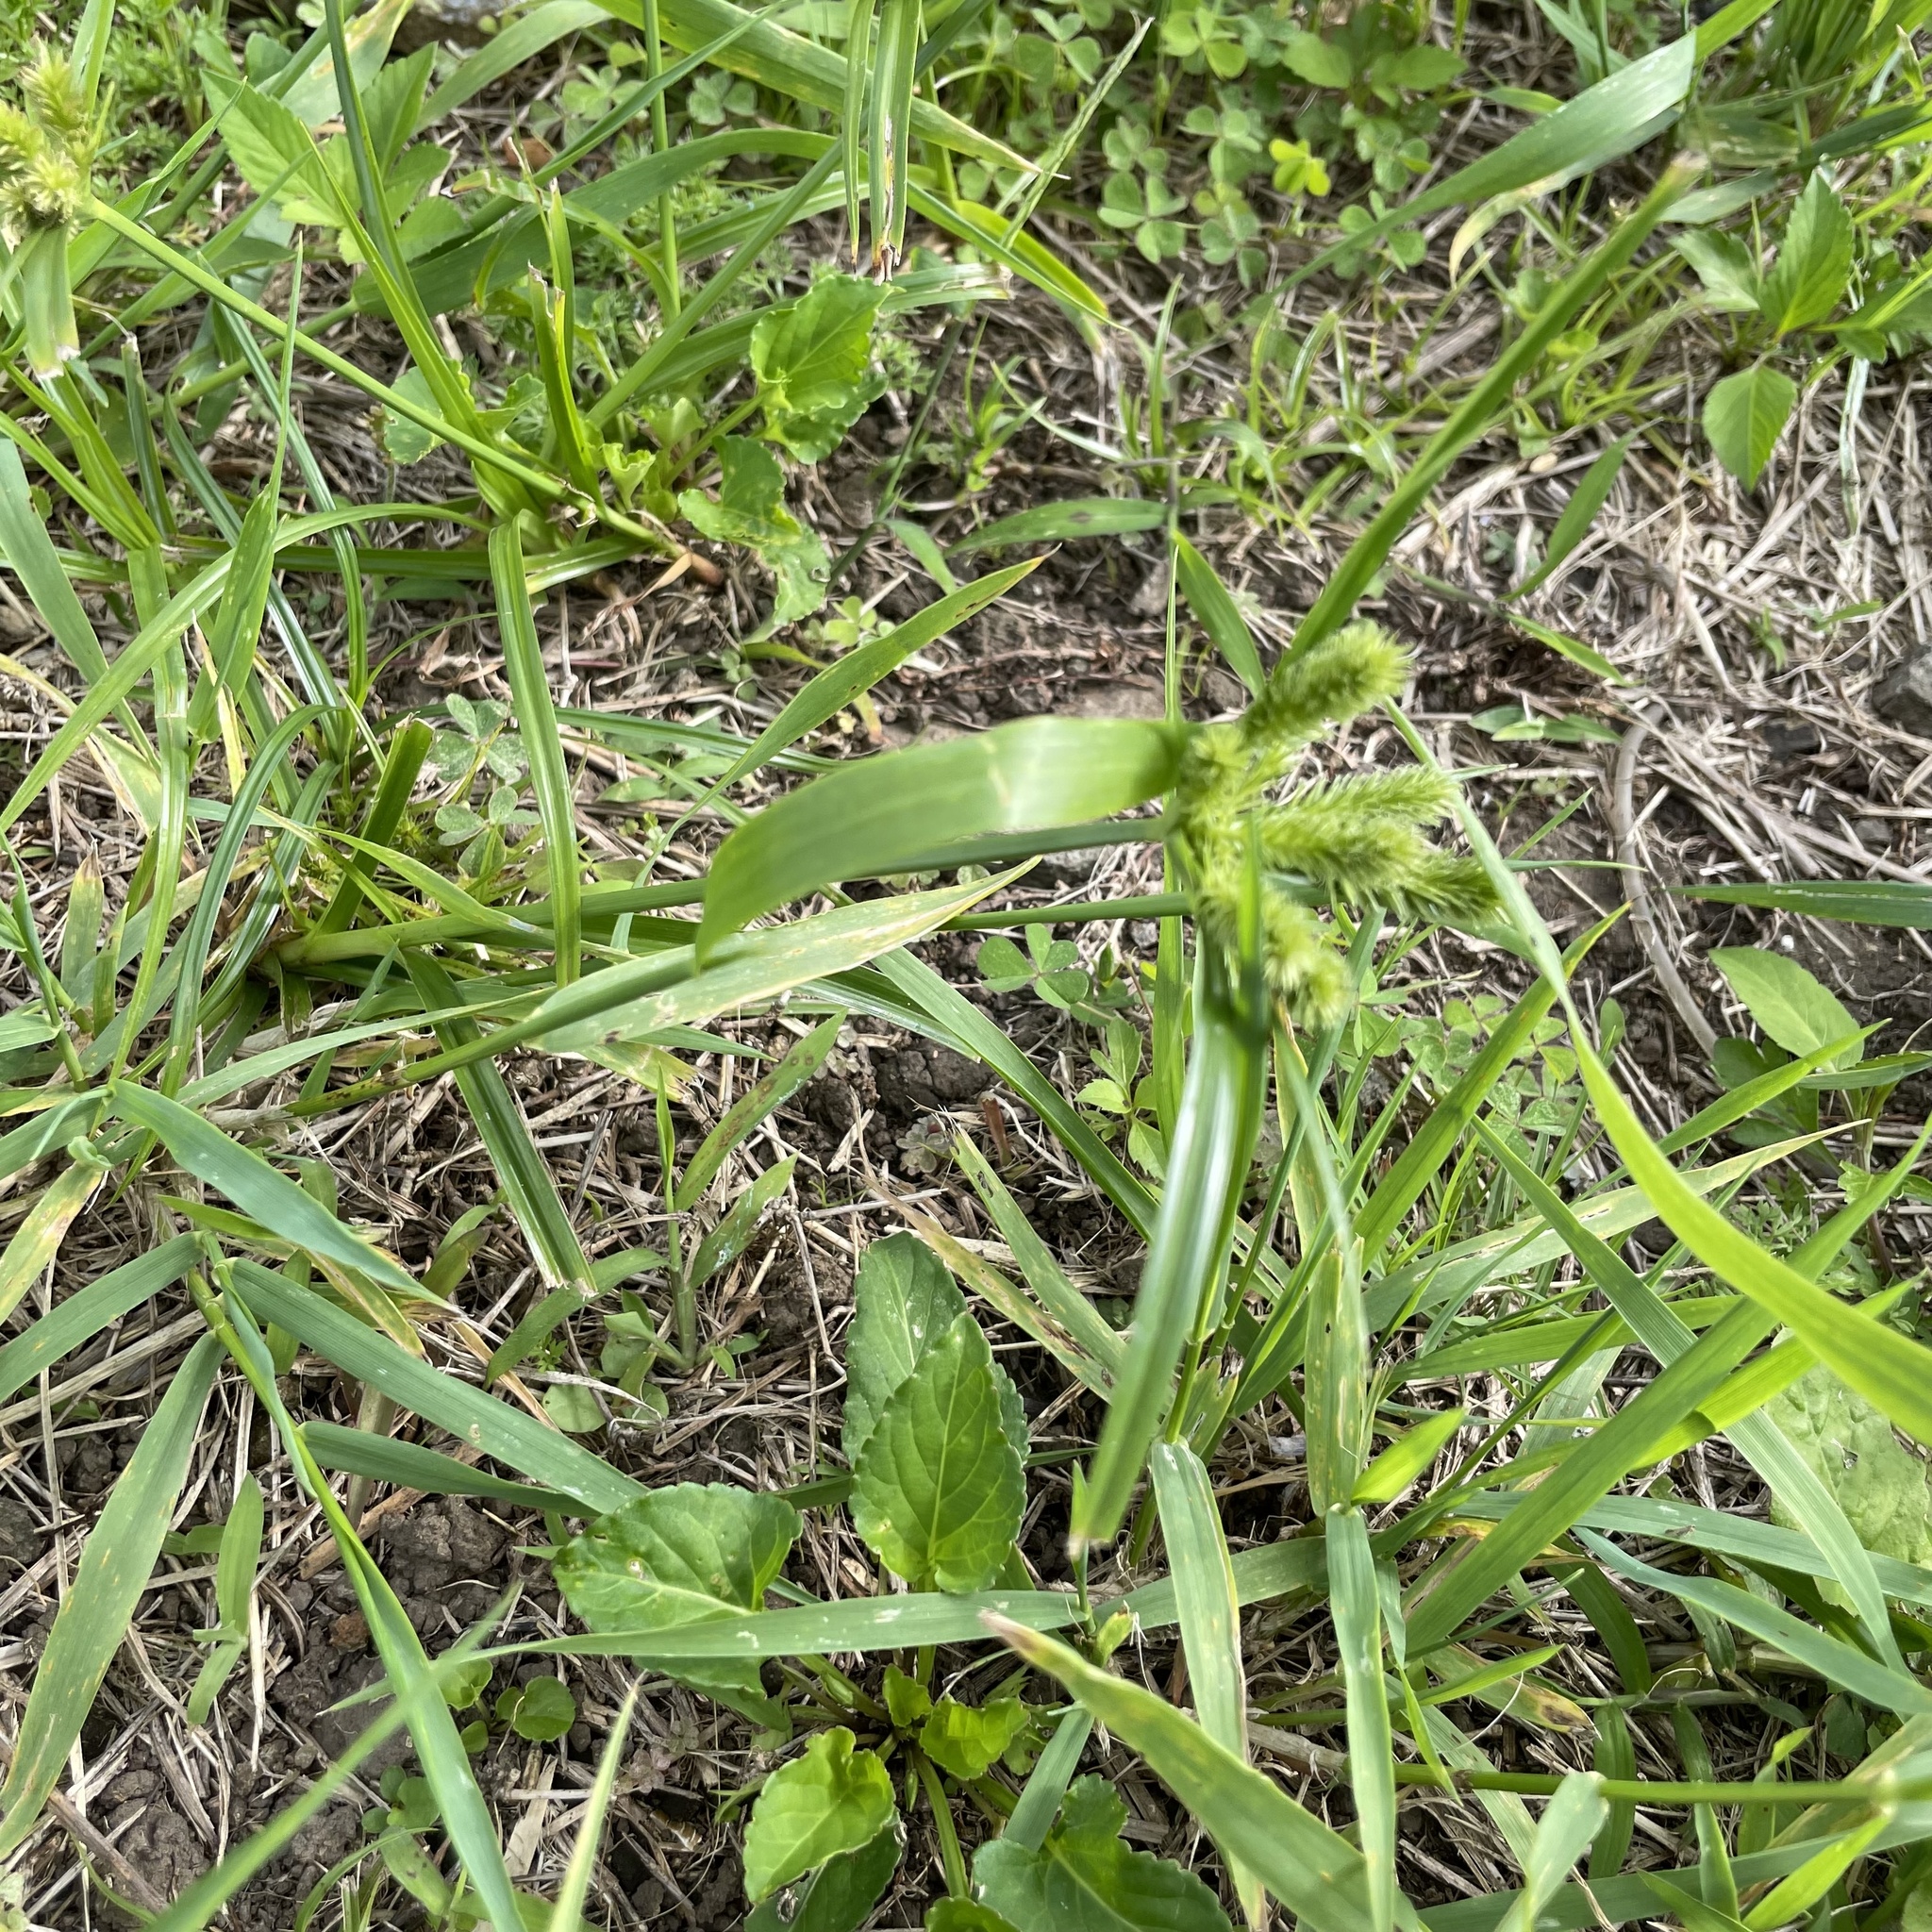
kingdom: Plantae
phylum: Tracheophyta
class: Liliopsida
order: Poales
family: Cyperaceae
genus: Cyperus
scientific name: Cyperus cyperoides
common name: Pacific island flat sedge
